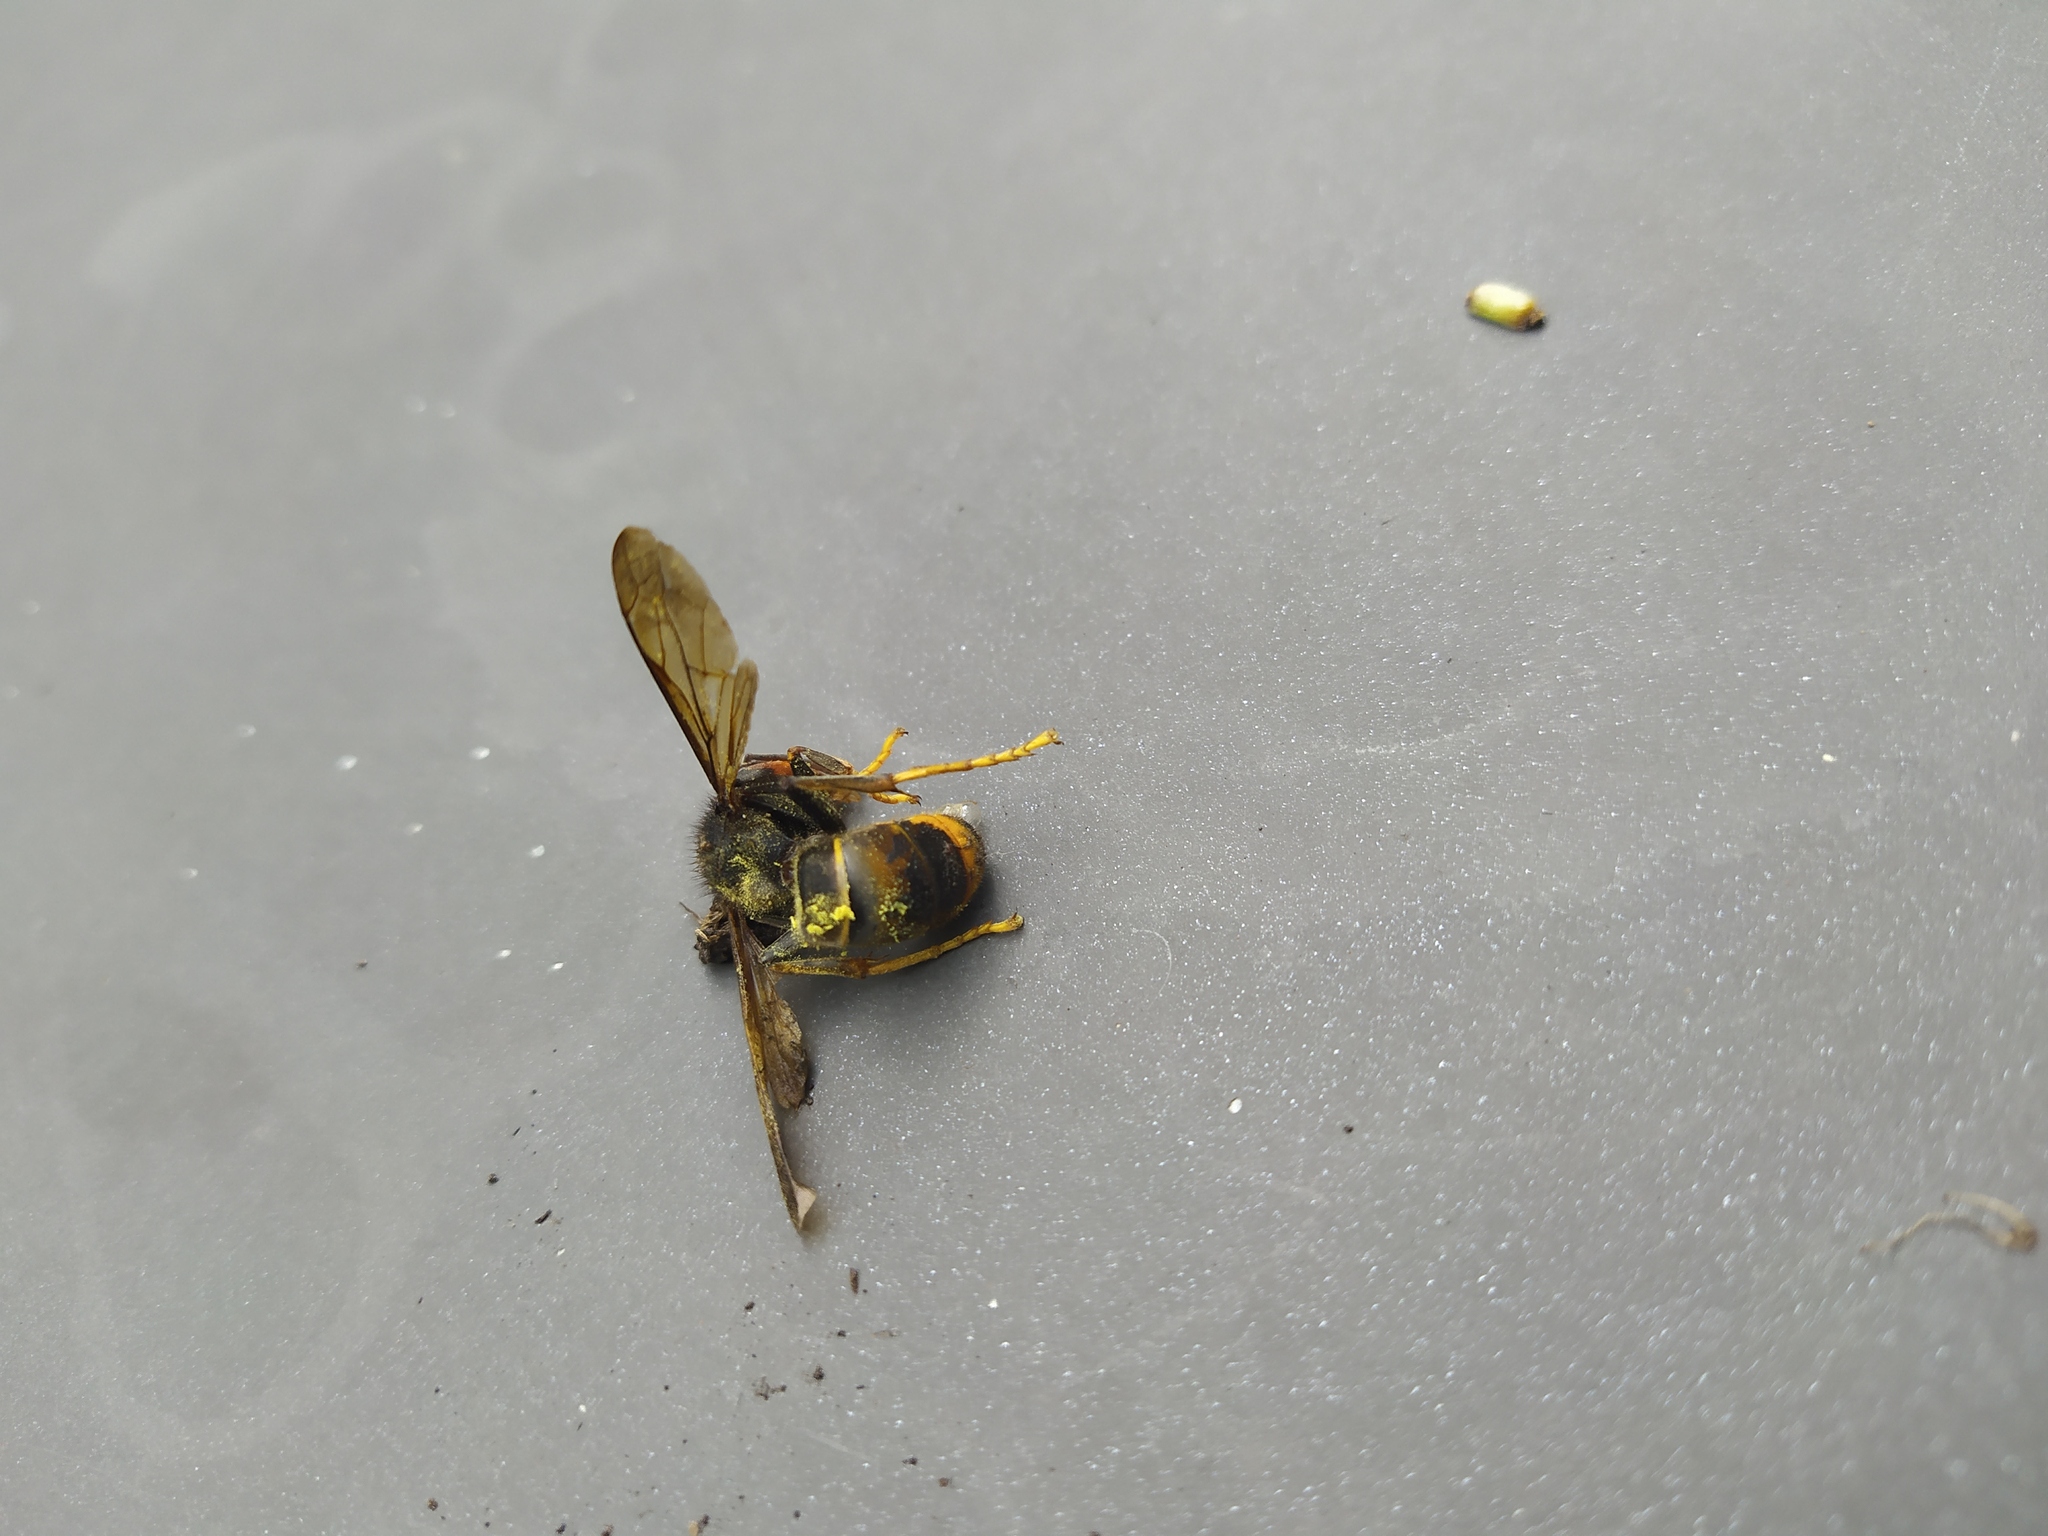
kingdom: Animalia
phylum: Arthropoda
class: Insecta
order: Hymenoptera
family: Vespidae
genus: Vespa
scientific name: Vespa velutina
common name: Asian hornet
